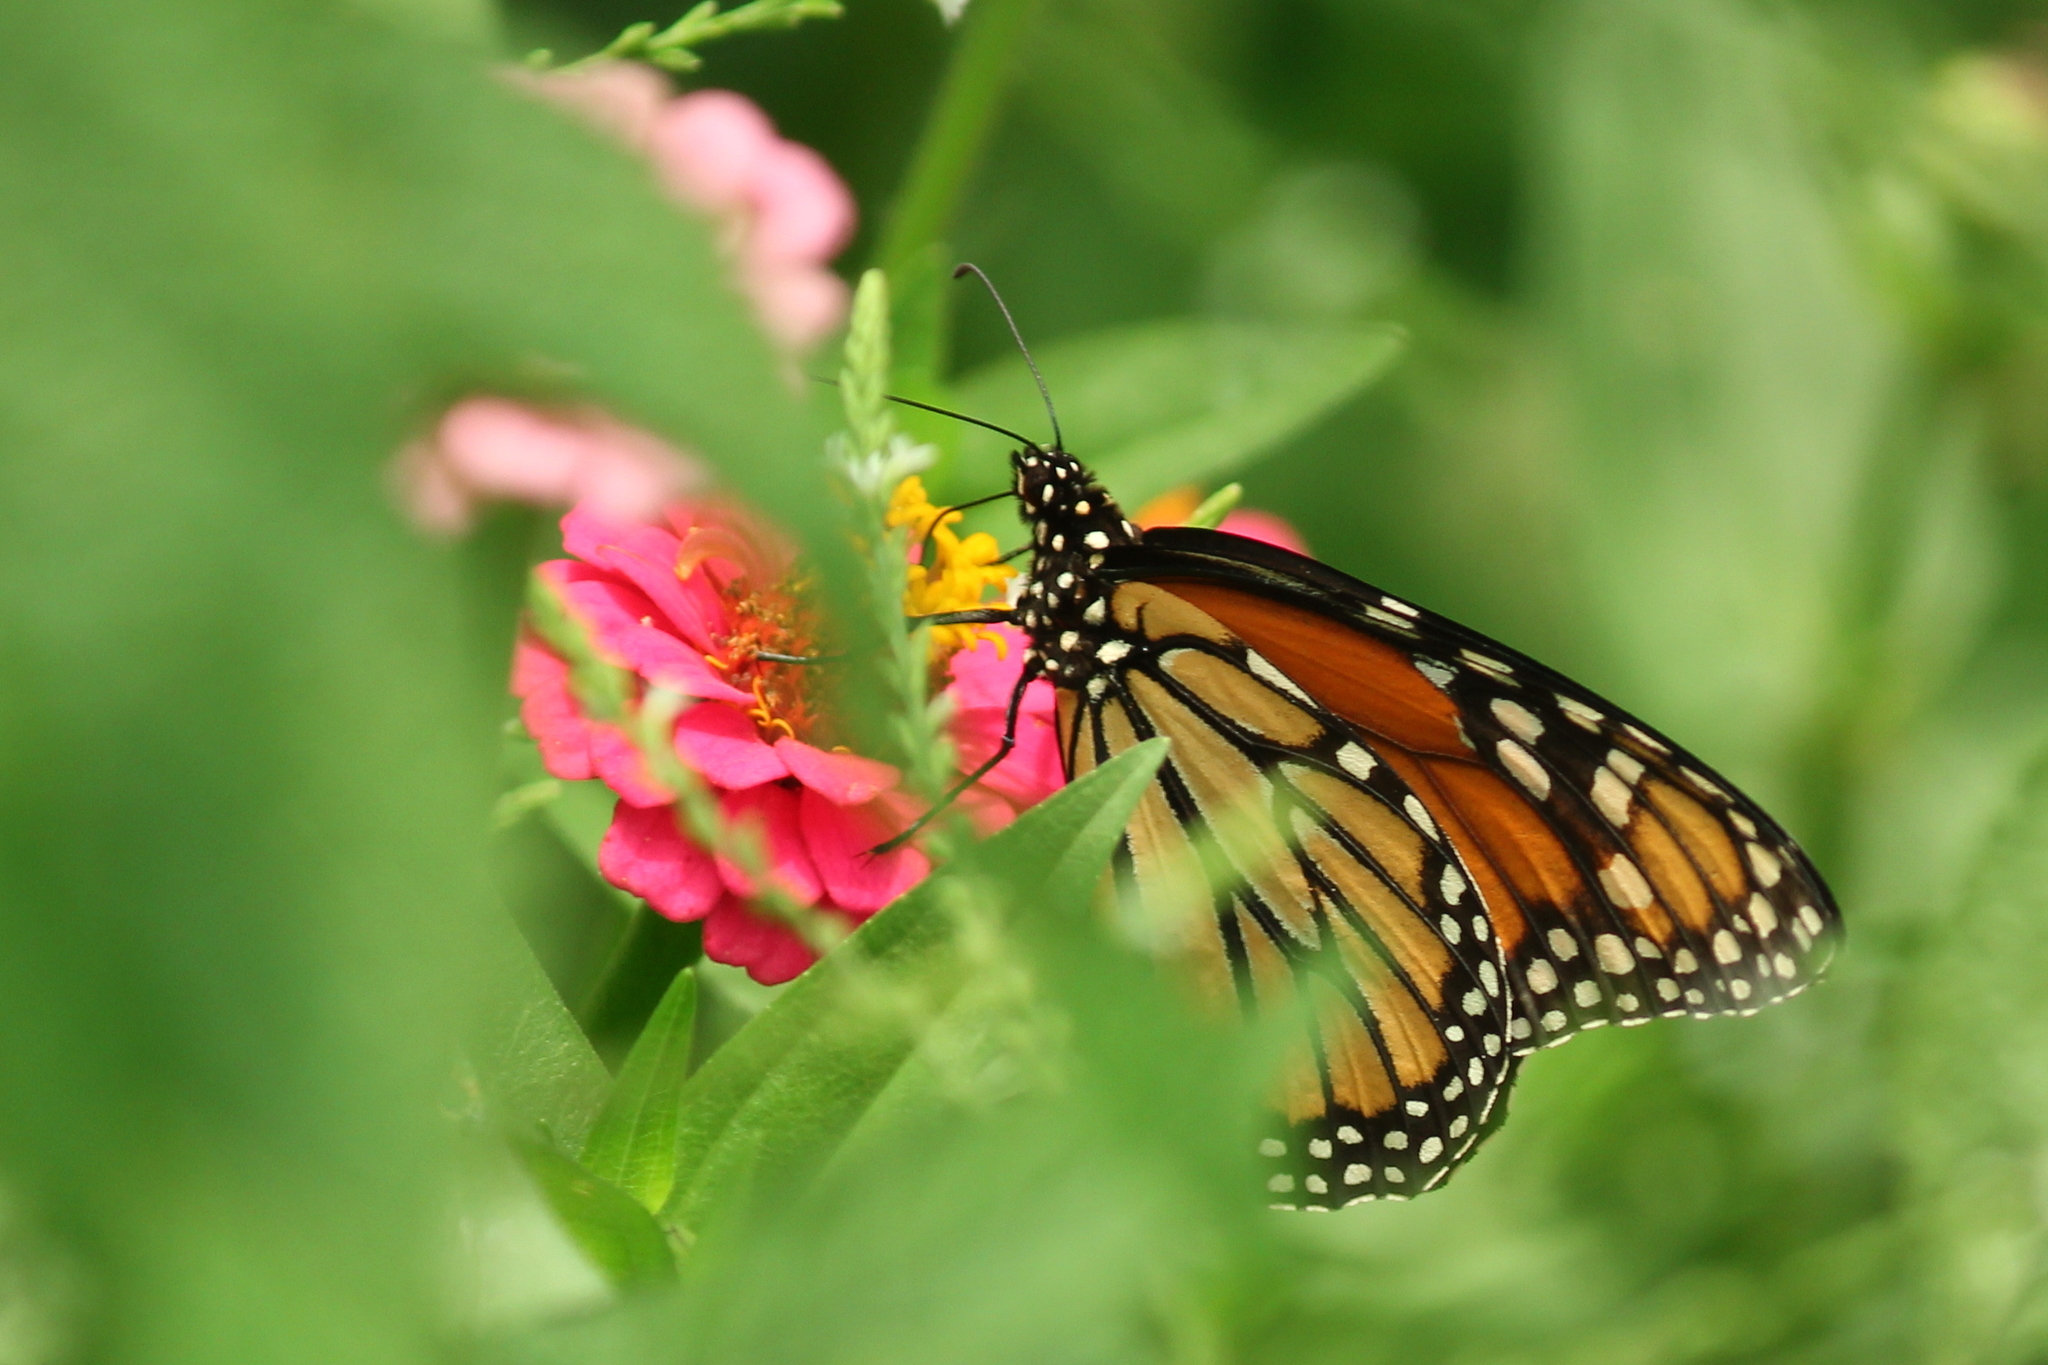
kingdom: Animalia
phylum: Arthropoda
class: Insecta
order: Lepidoptera
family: Nymphalidae
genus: Danaus
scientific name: Danaus plexippus
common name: Monarch
